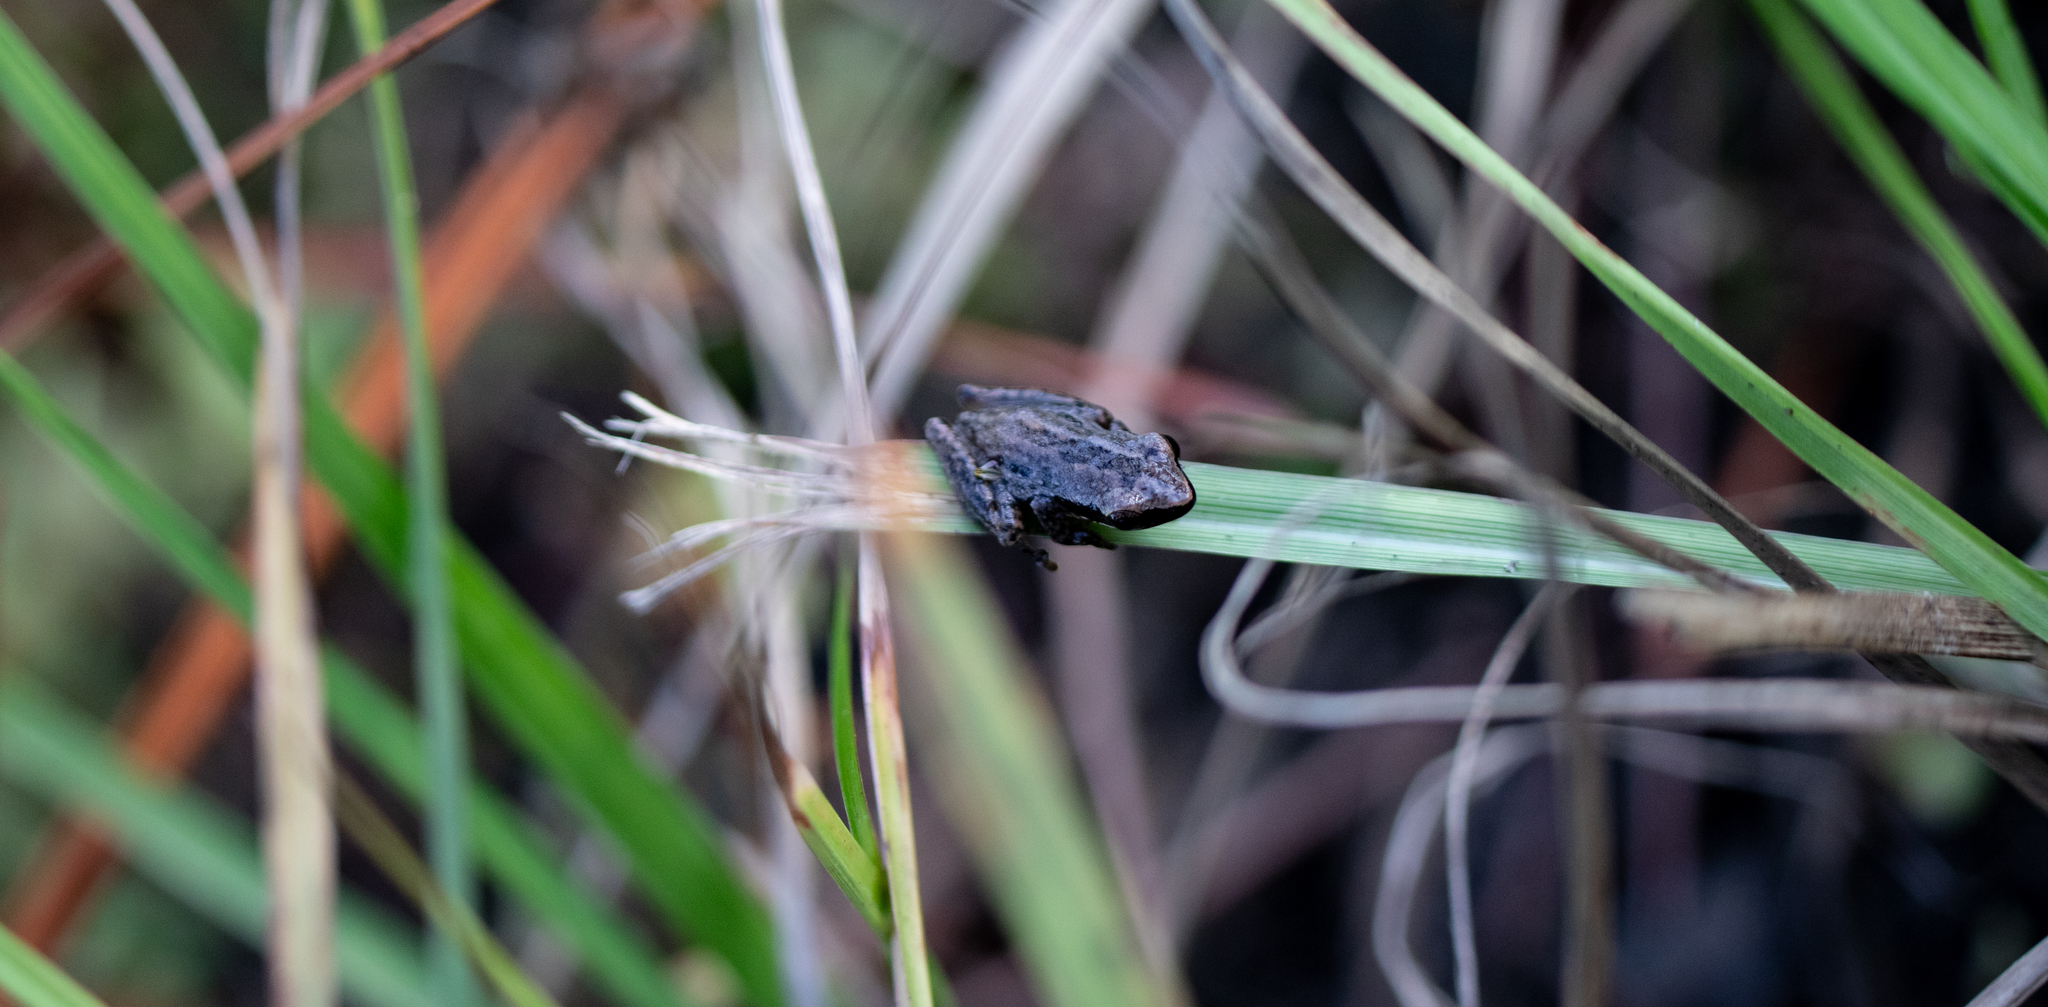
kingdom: Animalia
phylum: Chordata
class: Amphibia
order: Anura
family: Hylidae
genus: Pseudacris
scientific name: Pseudacris ocularis
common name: Little grass frog
